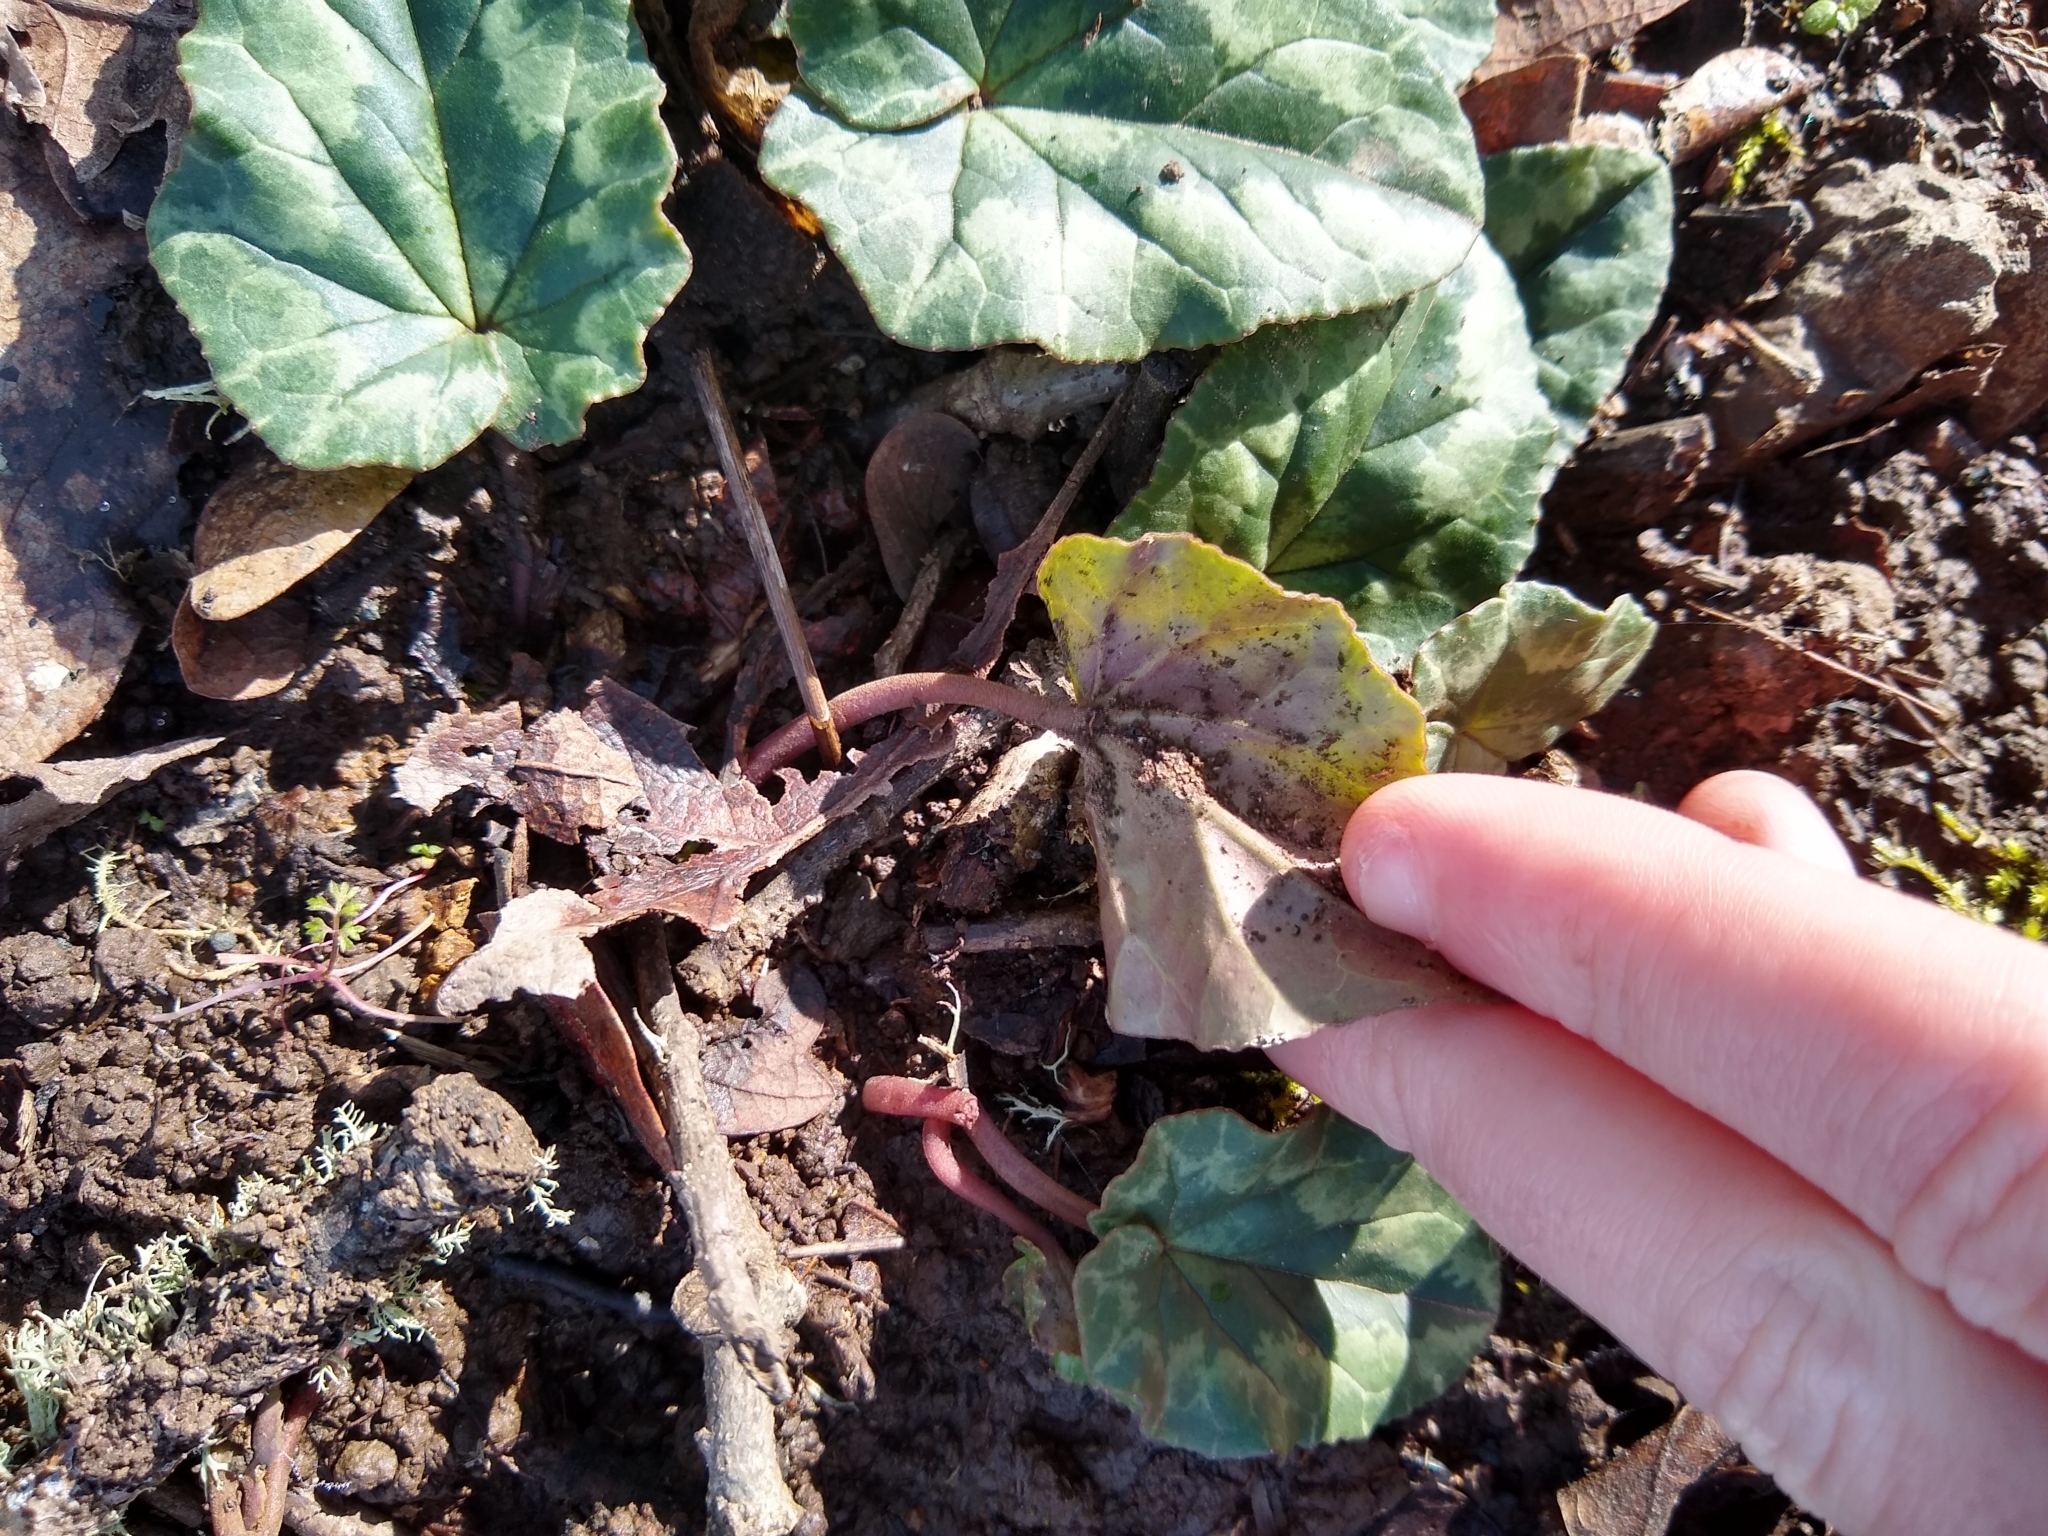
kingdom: Plantae
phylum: Tracheophyta
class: Magnoliopsida
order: Ericales
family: Primulaceae
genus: Cyclamen
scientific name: Cyclamen hederifolium
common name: Sowbread
